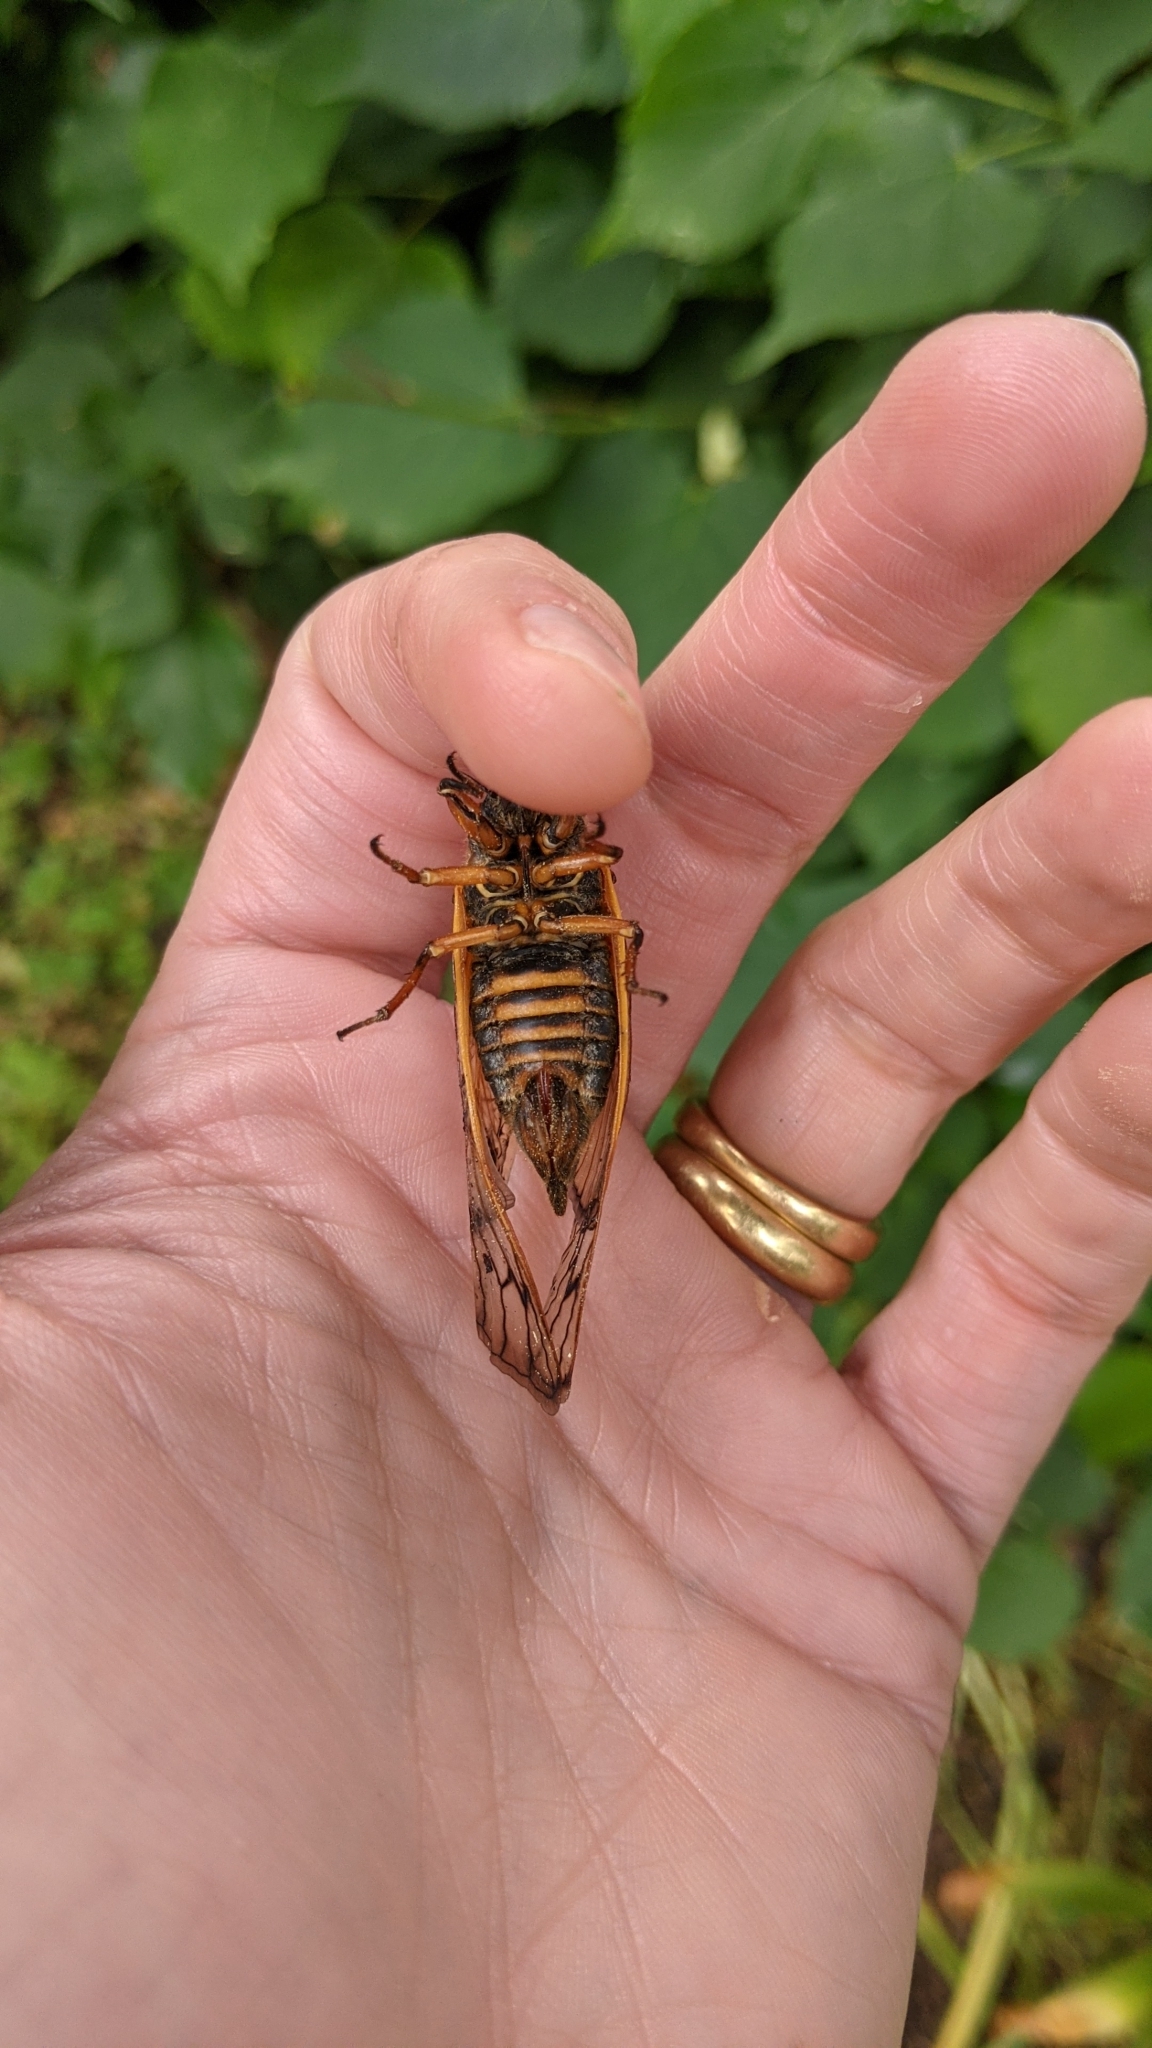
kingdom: Animalia
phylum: Arthropoda
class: Insecta
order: Hemiptera
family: Cicadidae
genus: Magicicada
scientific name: Magicicada septendecim
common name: Periodical cicada
